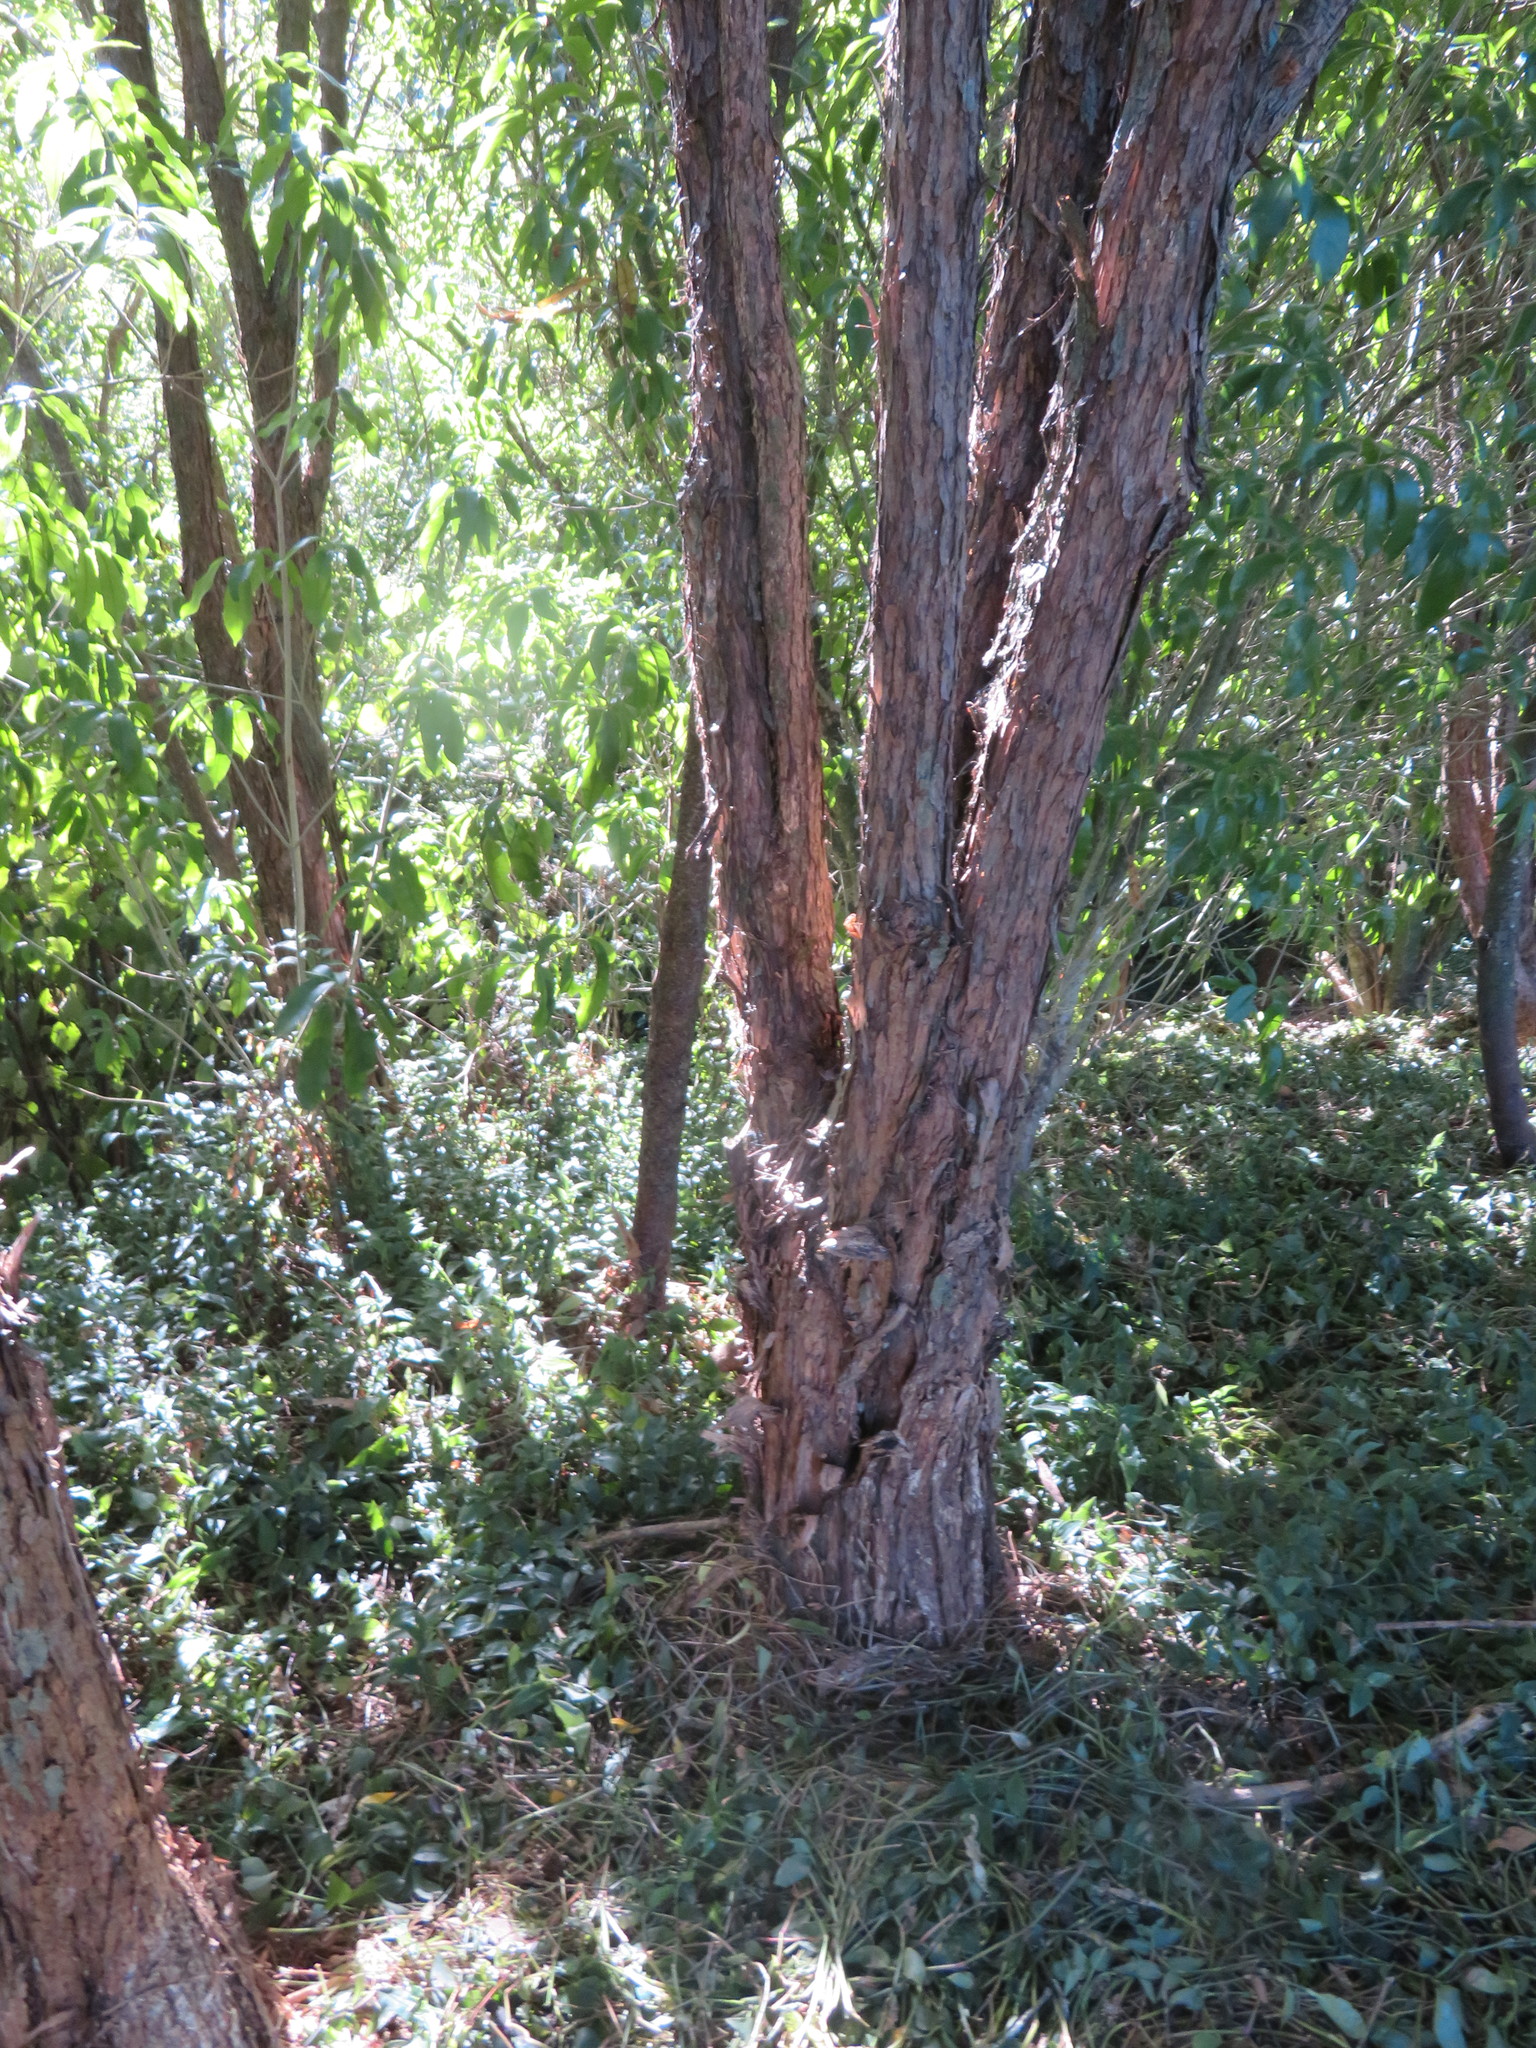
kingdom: Plantae
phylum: Tracheophyta
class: Liliopsida
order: Commelinales
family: Commelinaceae
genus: Tradescantia
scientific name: Tradescantia fluminensis
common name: Wandering-jew
